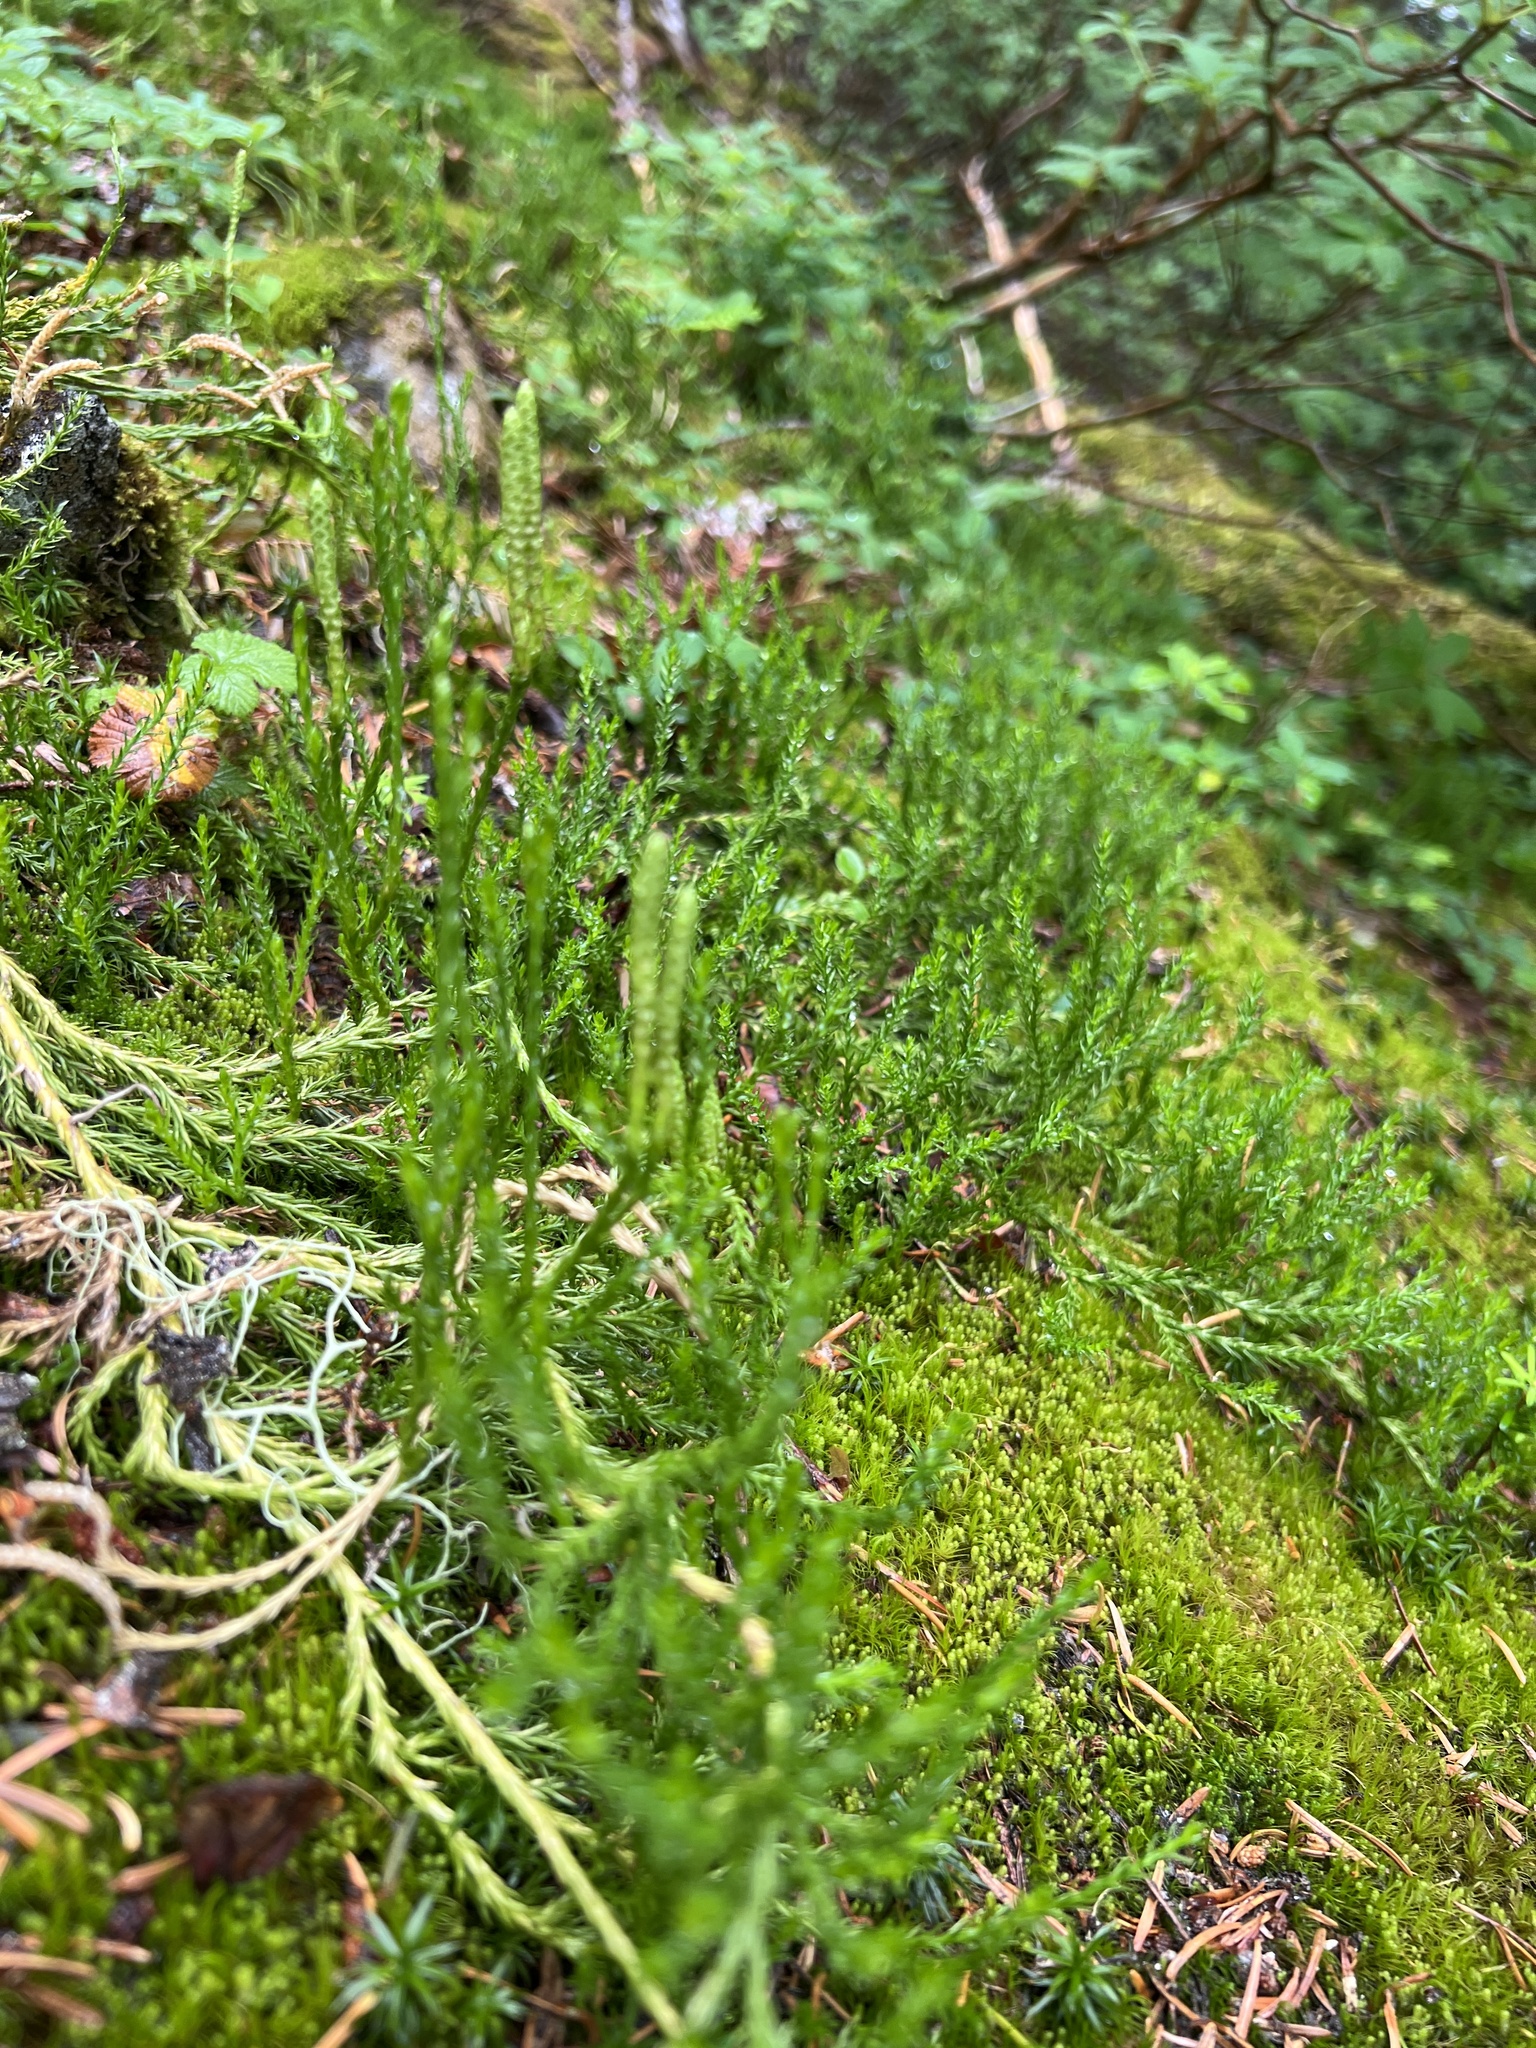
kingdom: Plantae
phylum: Tracheophyta
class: Lycopodiopsida
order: Lycopodiales
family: Lycopodiaceae
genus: Diphasiastrum
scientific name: Diphasiastrum sitchense
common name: Alaska clubmoss
